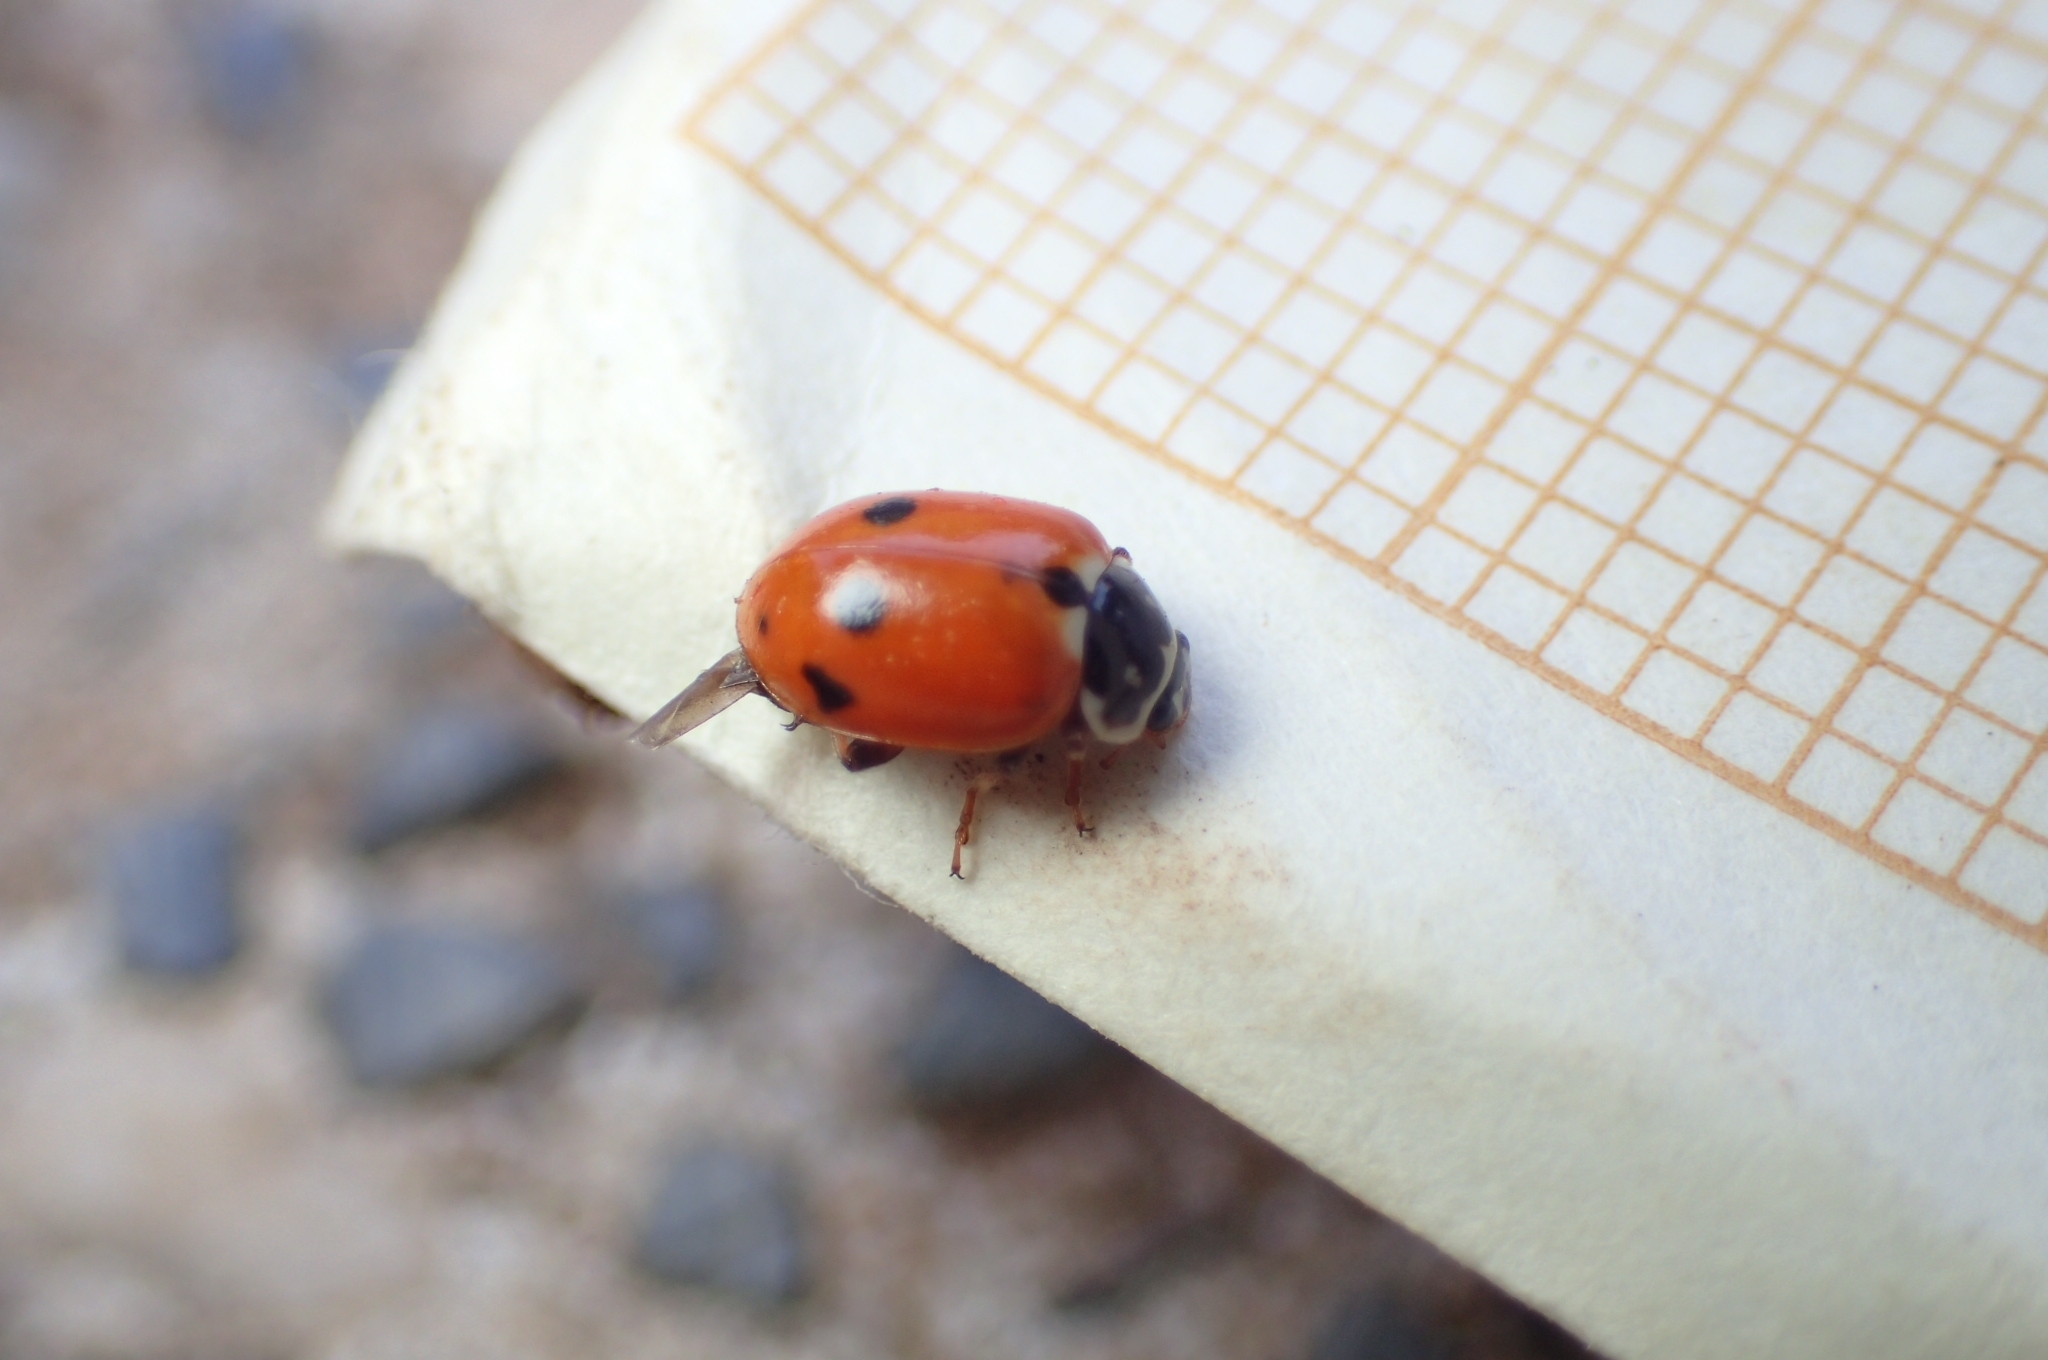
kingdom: Animalia
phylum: Arthropoda
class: Insecta
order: Coleoptera
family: Coccinellidae
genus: Hippodamia
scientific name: Hippodamia variegata
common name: Ladybird beetle
